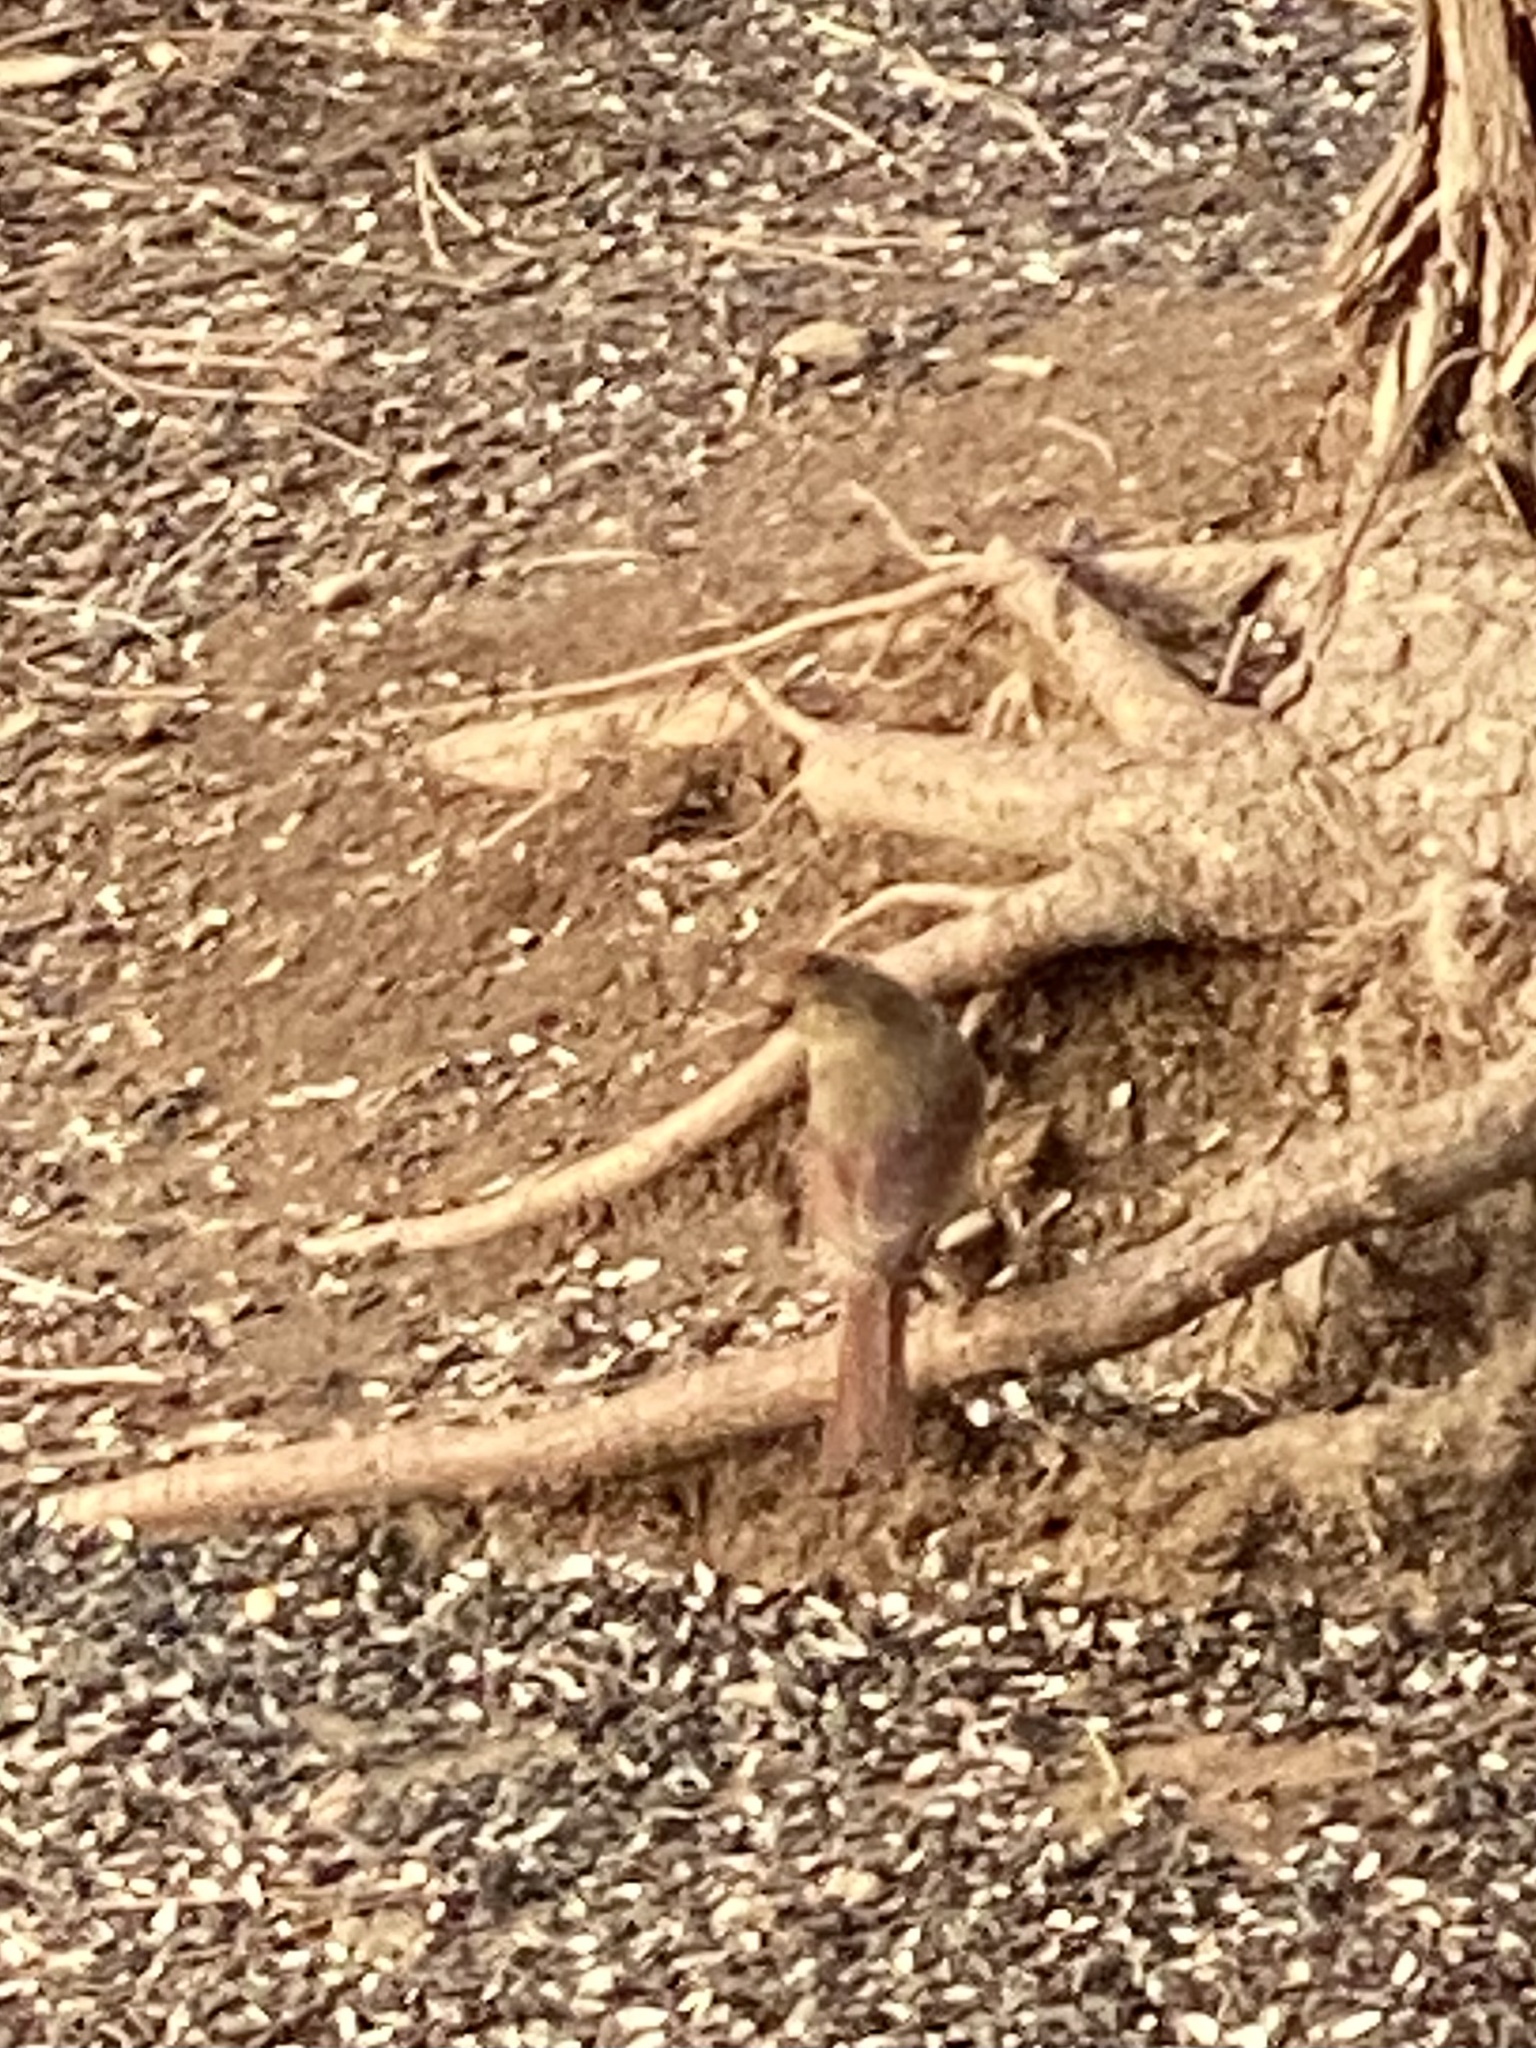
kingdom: Animalia
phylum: Chordata
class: Aves
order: Passeriformes
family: Cardinalidae
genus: Cardinalis
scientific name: Cardinalis cardinalis
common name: Northern cardinal
